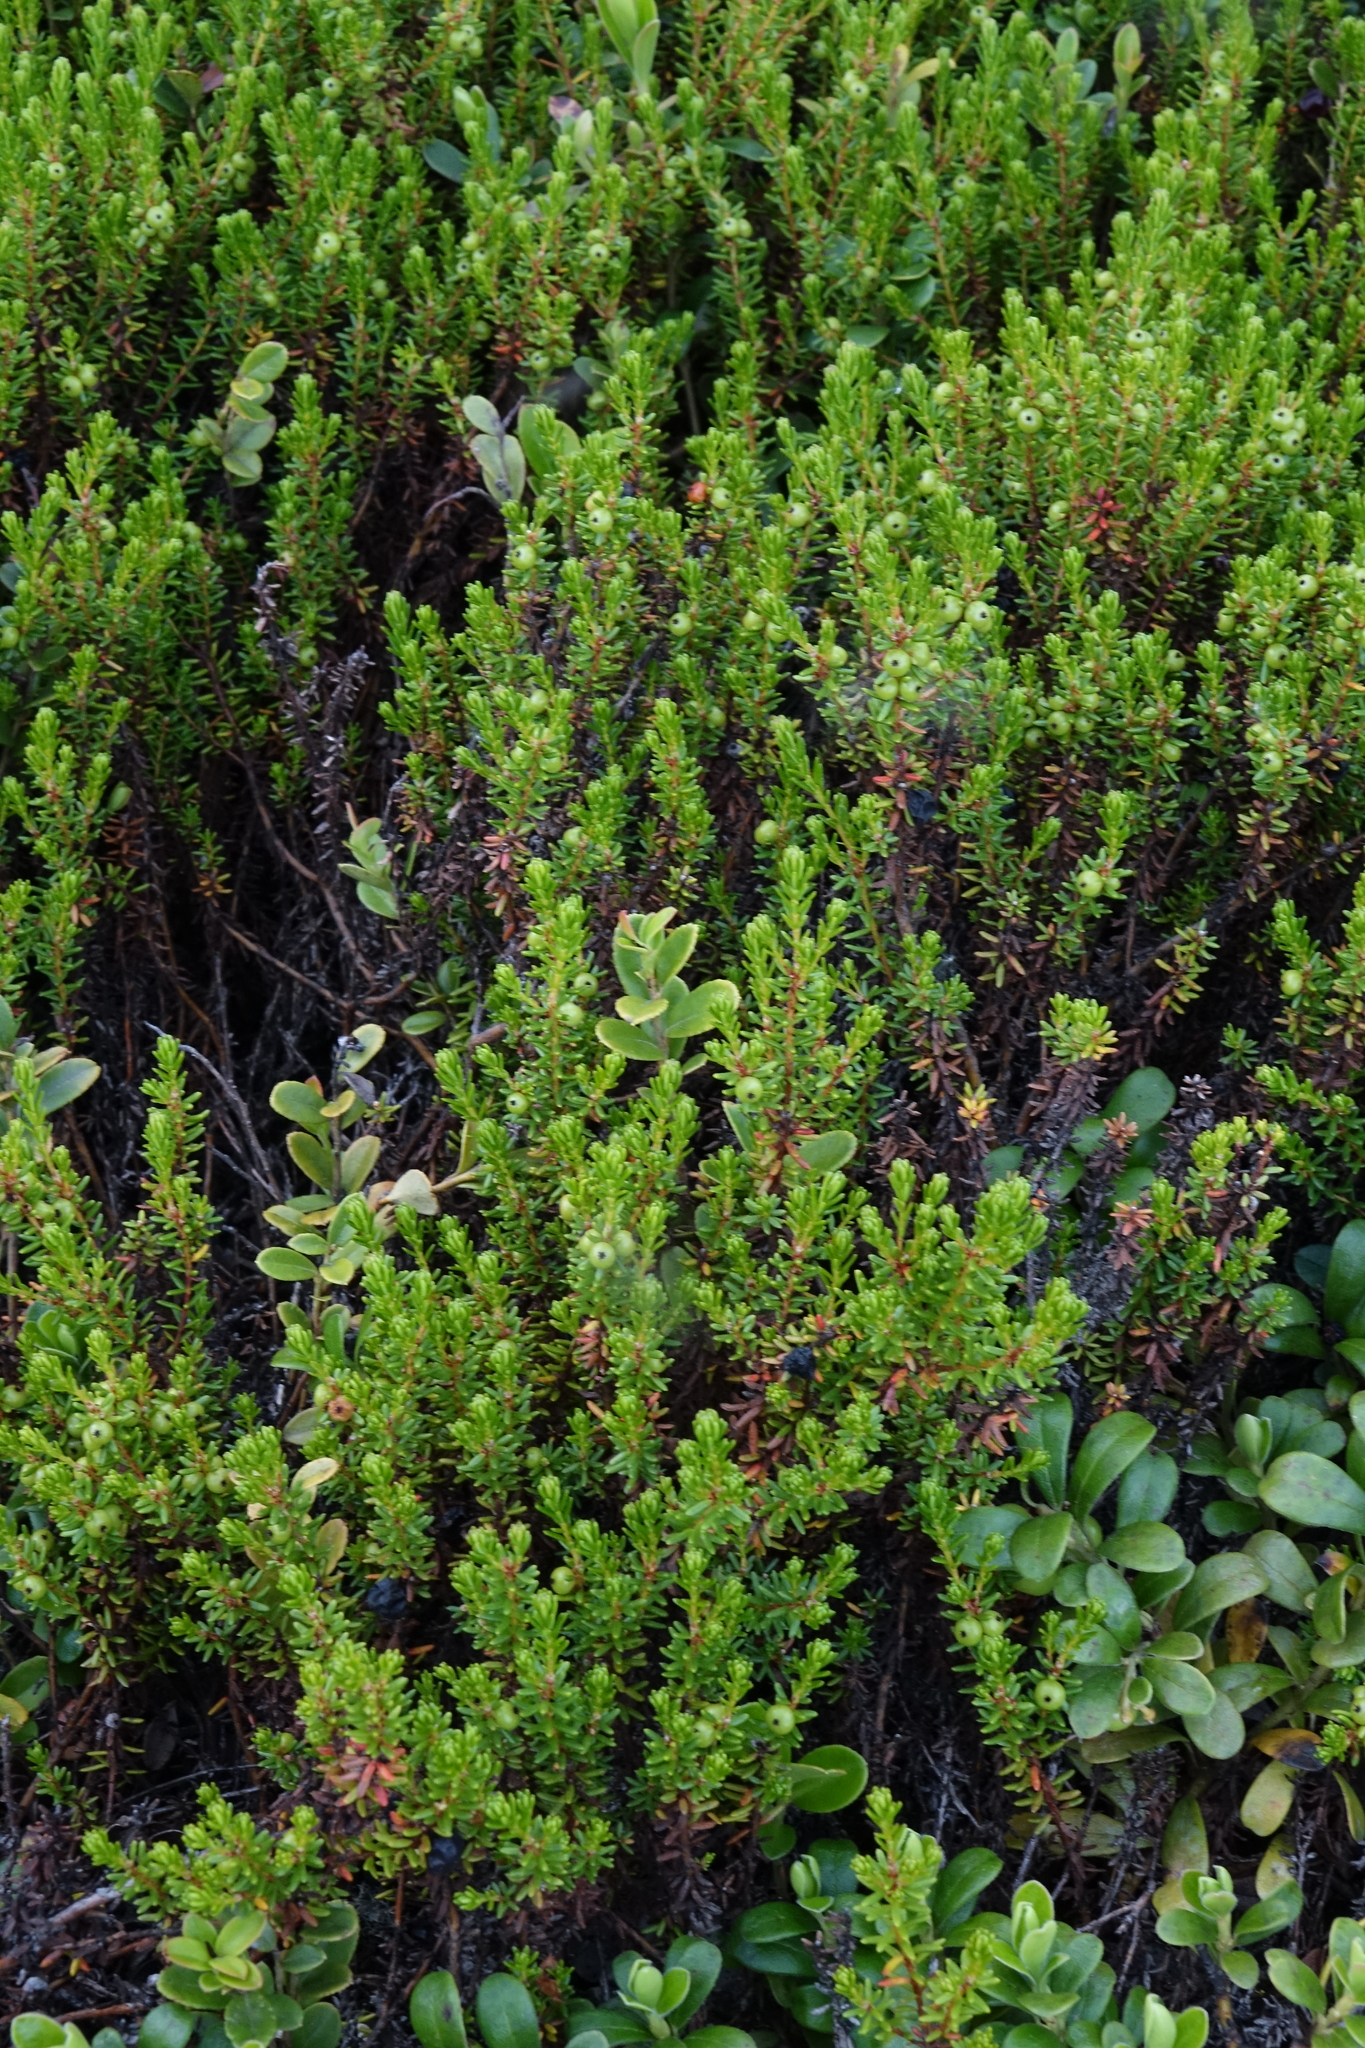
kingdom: Plantae
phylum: Tracheophyta
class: Magnoliopsida
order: Ericales
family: Ericaceae
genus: Vaccinium
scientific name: Vaccinium vitis-idaea
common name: Cowberry
